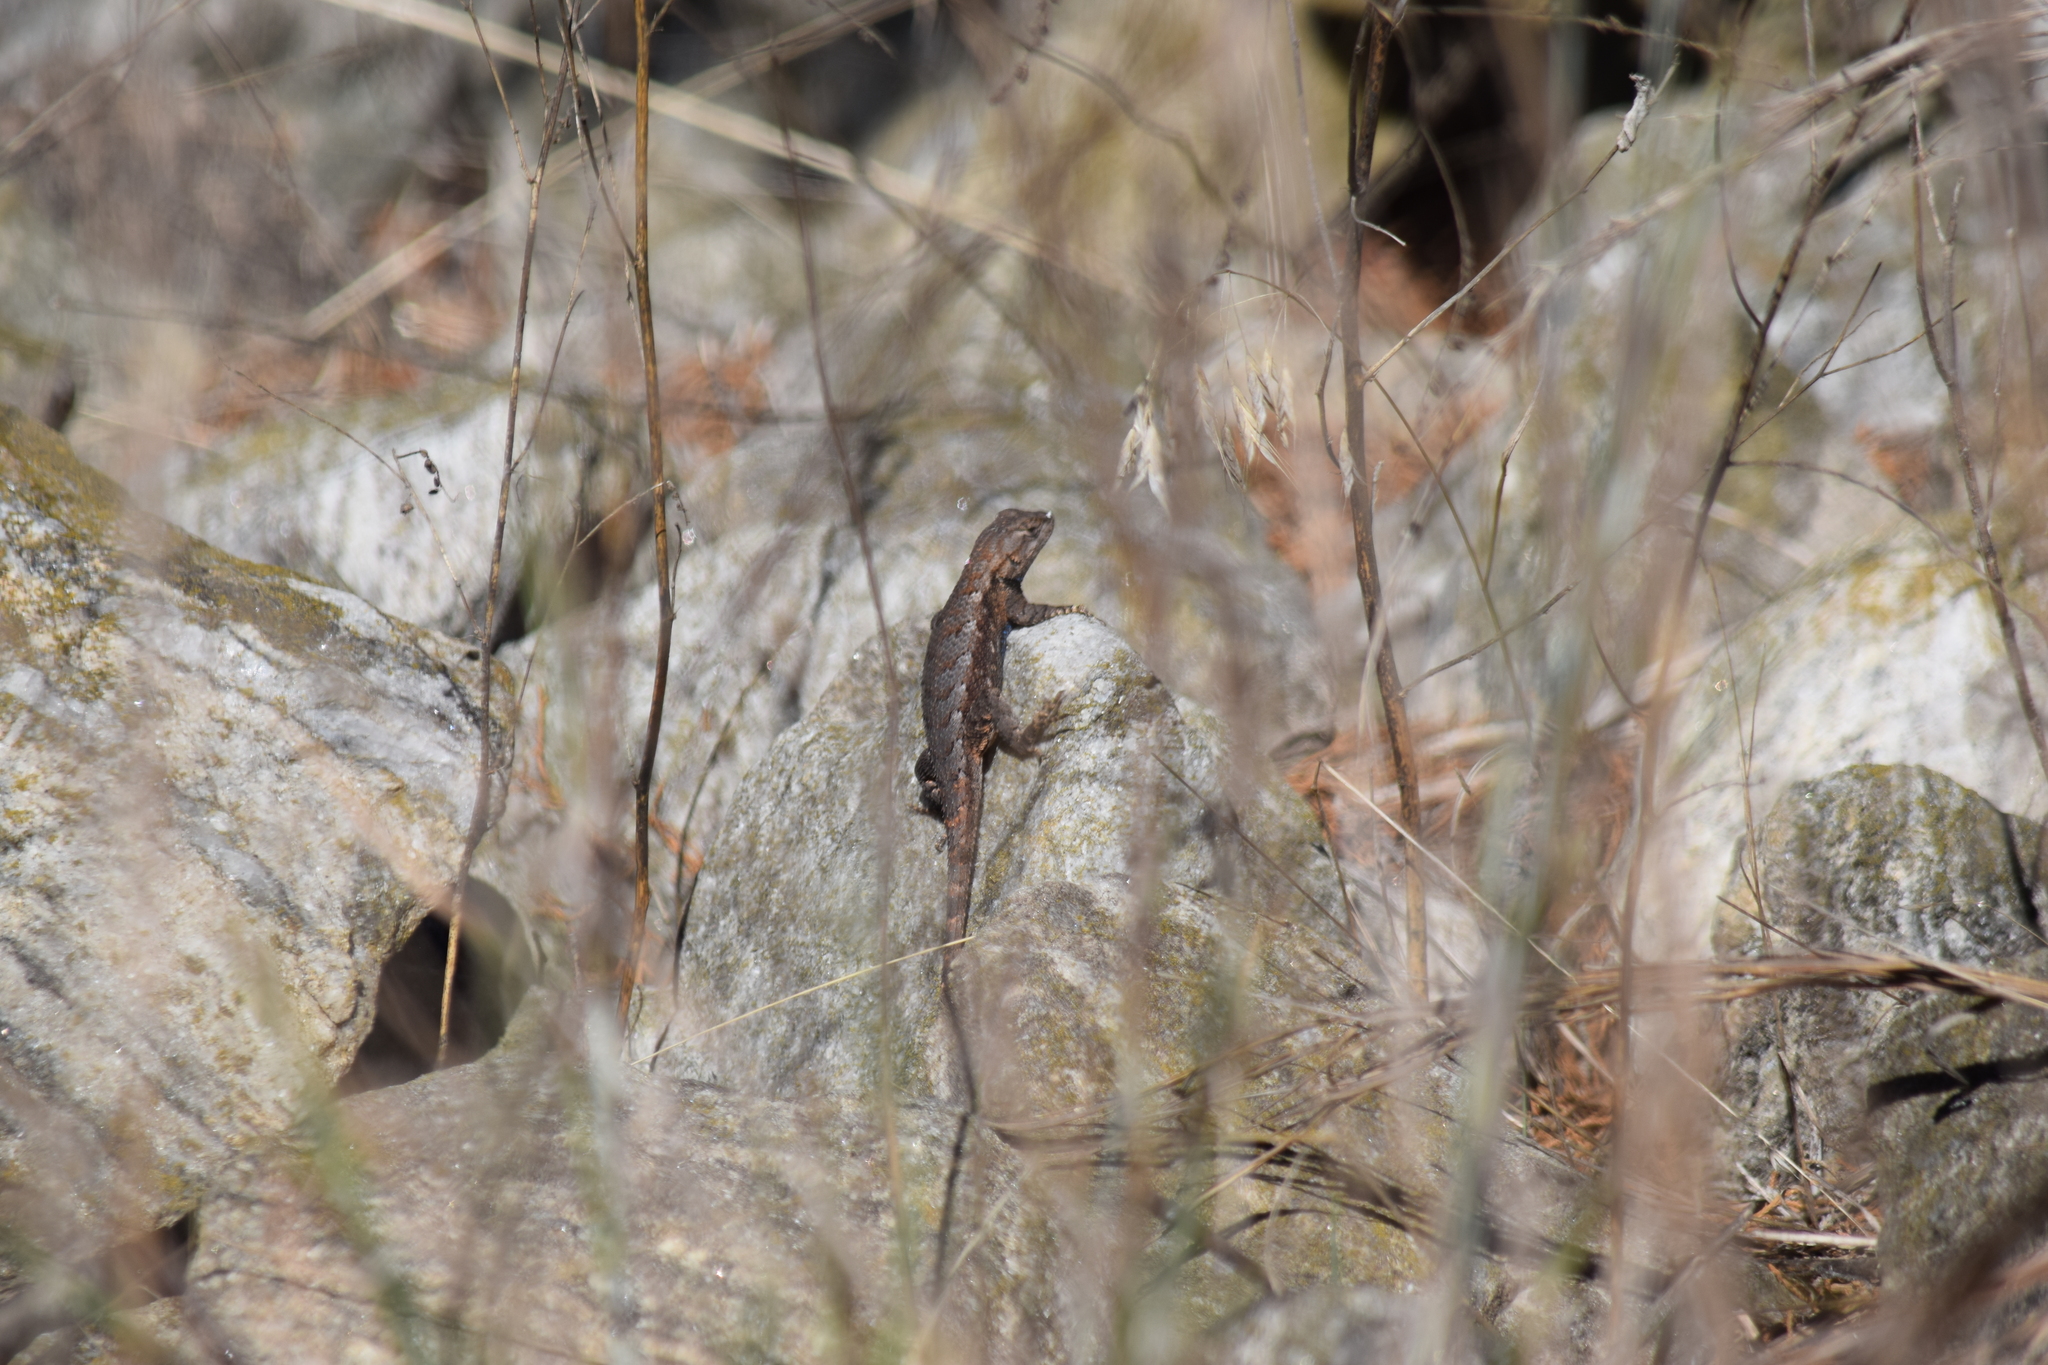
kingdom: Animalia
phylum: Chordata
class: Squamata
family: Phrynosomatidae
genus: Sceloporus
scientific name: Sceloporus undulatus
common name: Eastern fence lizard
